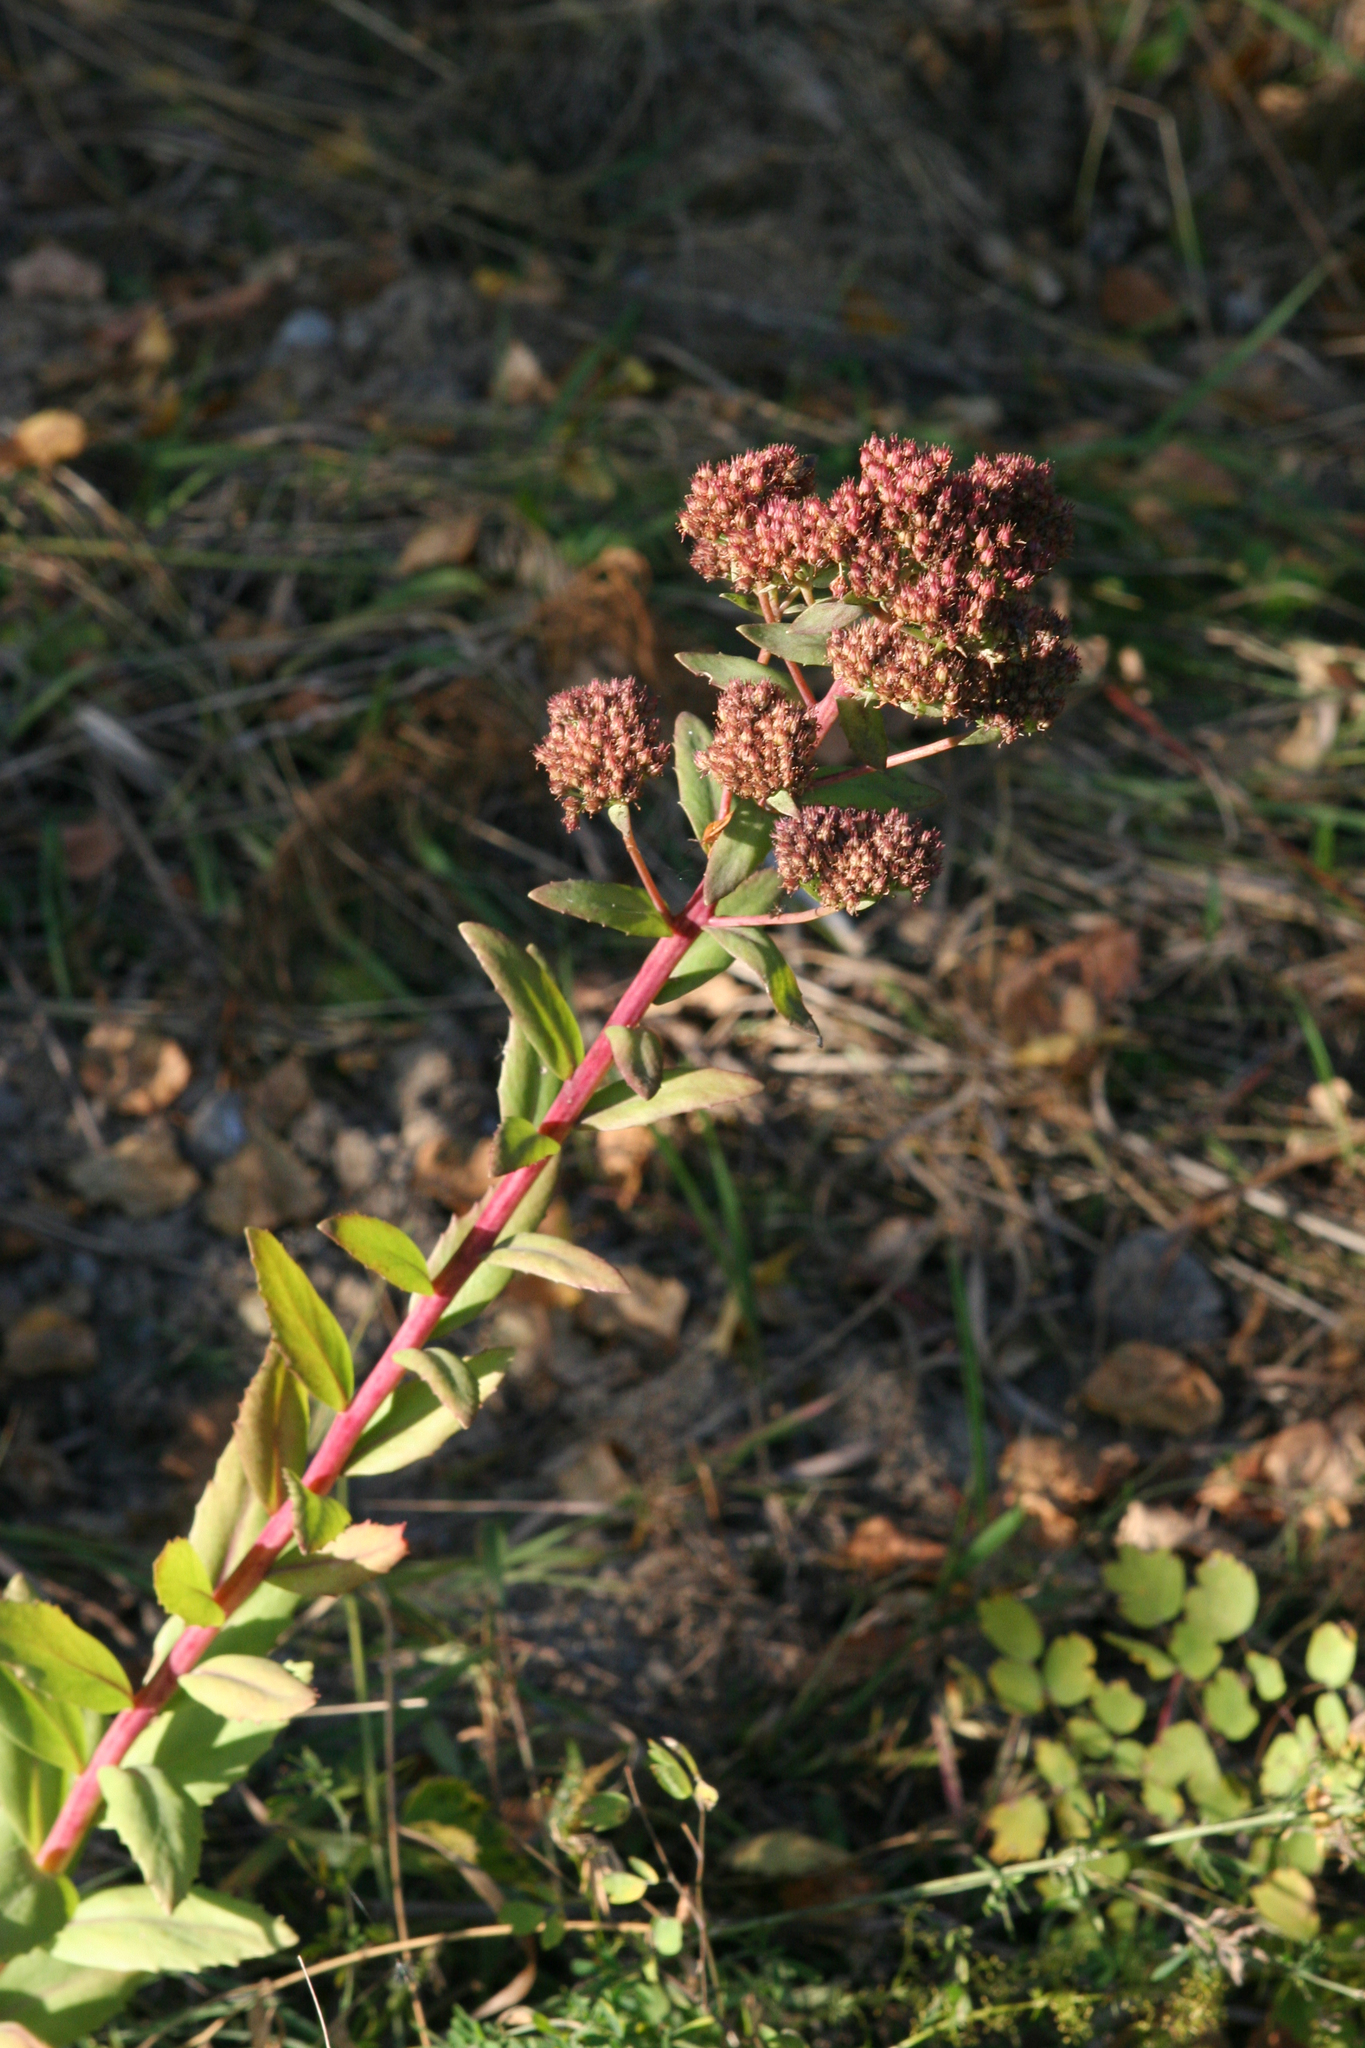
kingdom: Plantae
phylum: Tracheophyta
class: Magnoliopsida
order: Saxifragales
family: Crassulaceae
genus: Hylotelephium
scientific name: Hylotelephium telephium
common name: Live-forever
